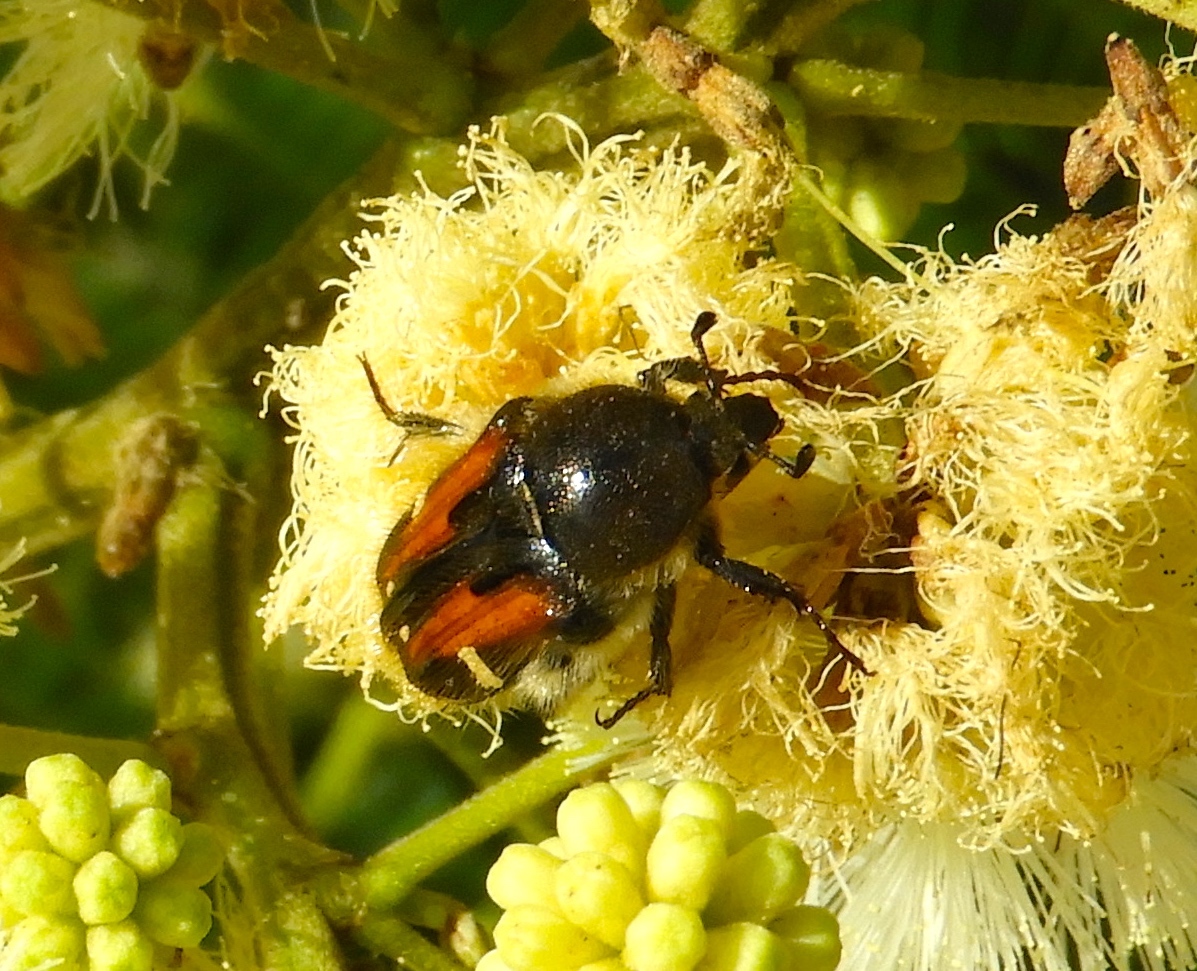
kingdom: Animalia
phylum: Arthropoda
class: Insecta
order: Coleoptera
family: Scarabaeidae
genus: Euphoria
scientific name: Euphoria pulchella
